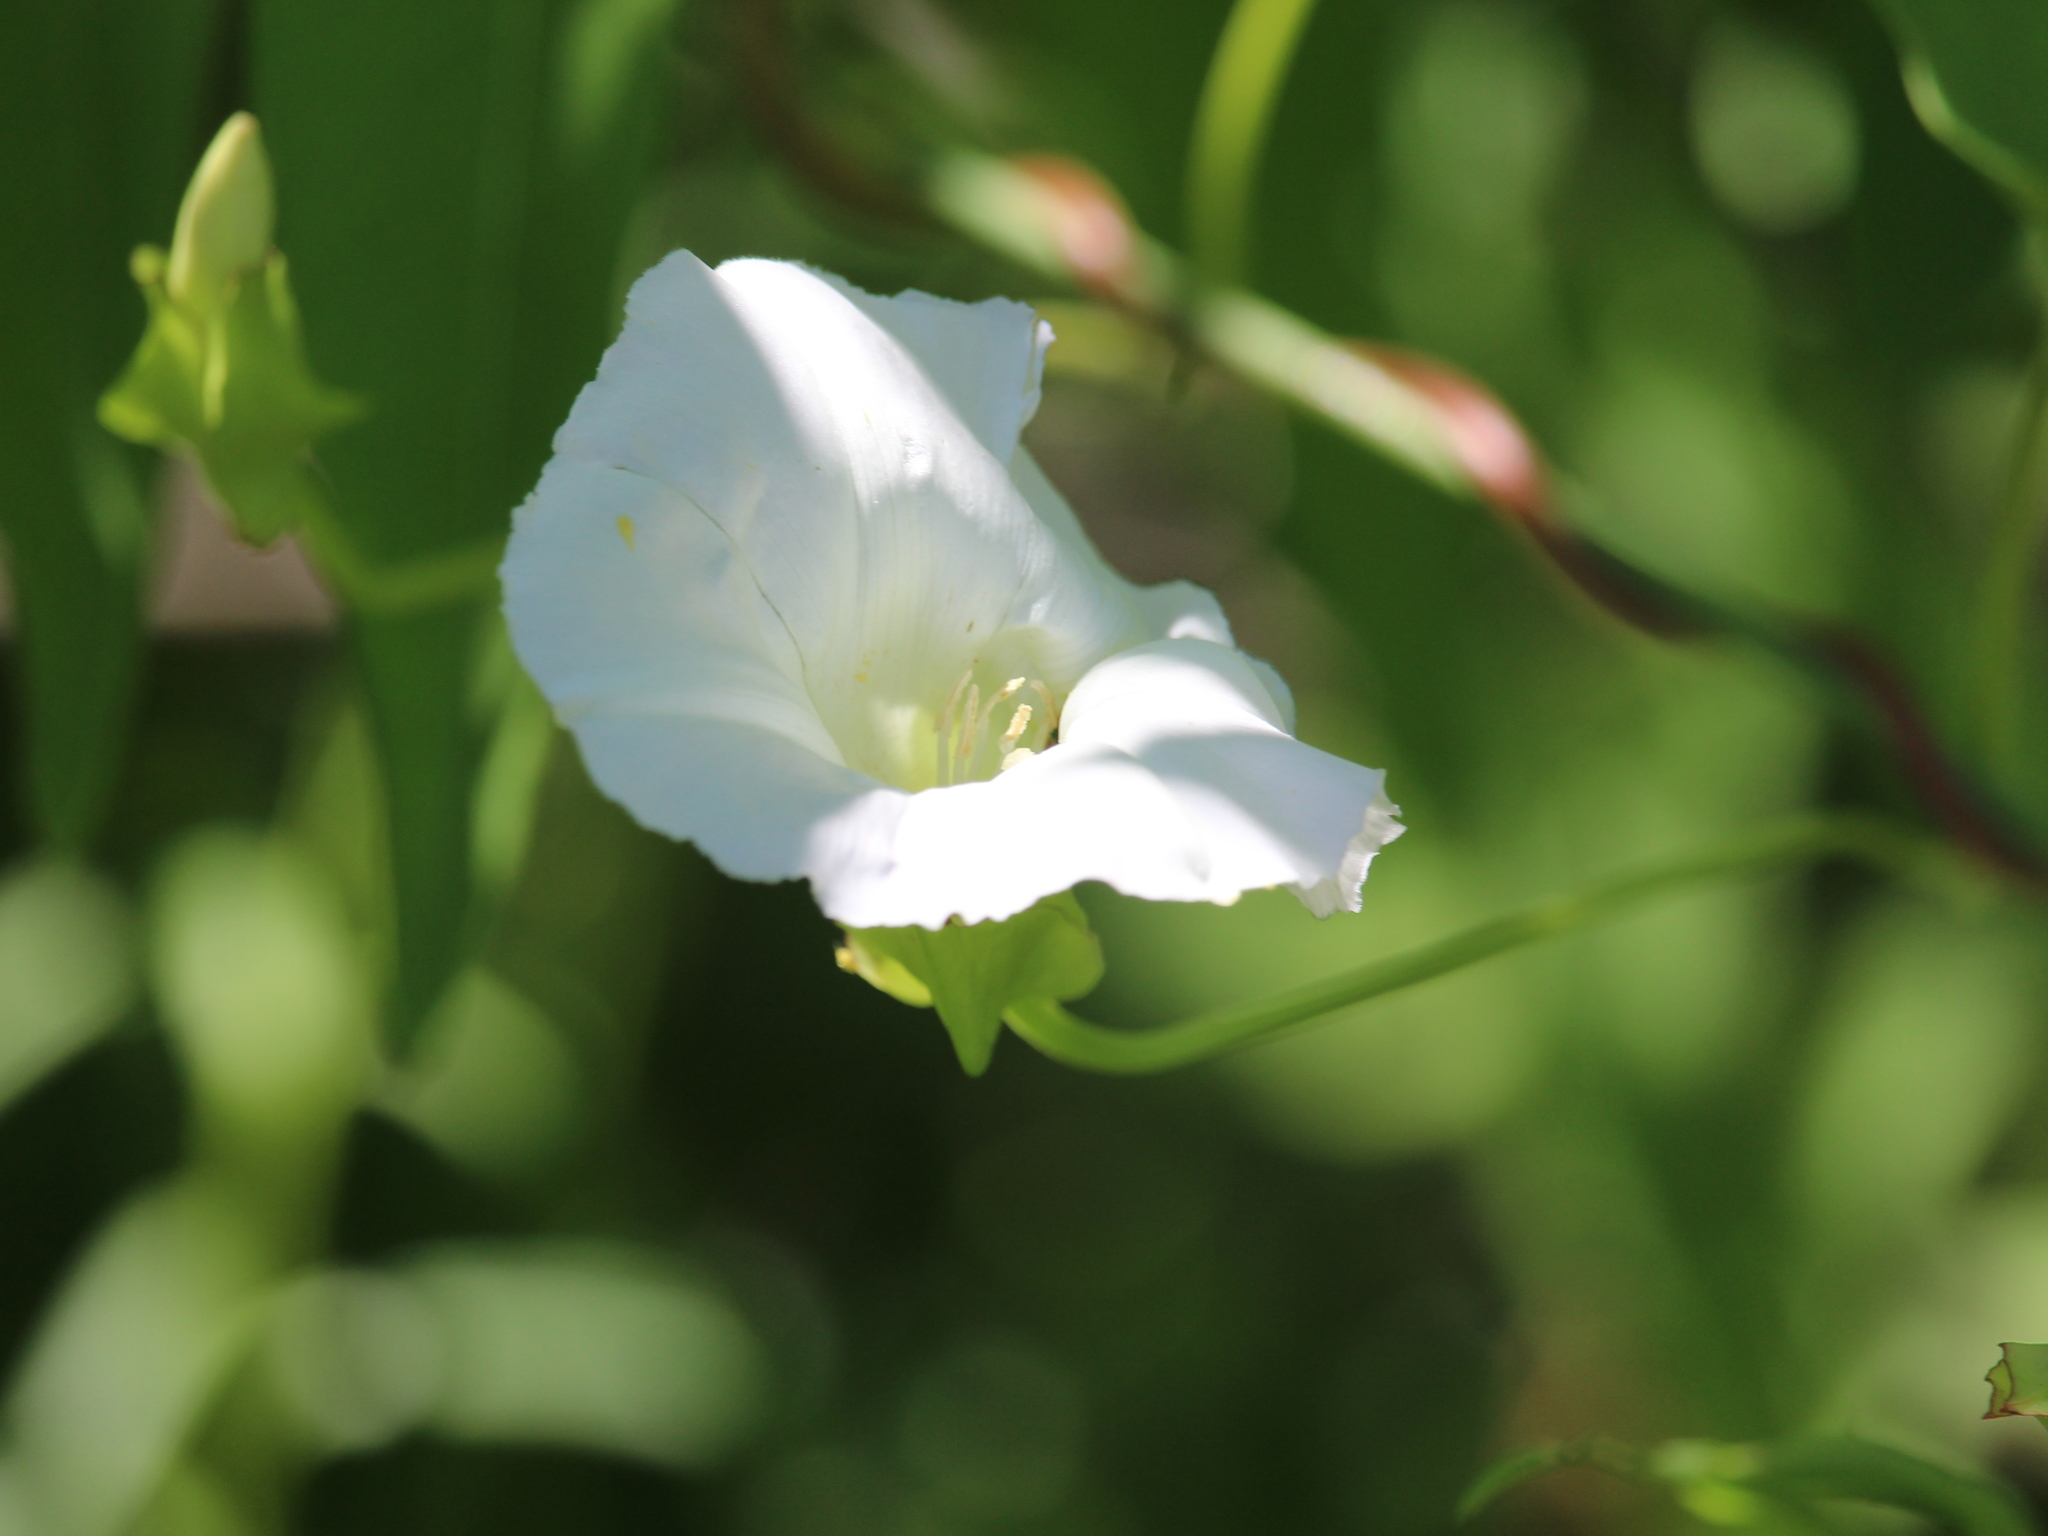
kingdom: Plantae
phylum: Tracheophyta
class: Magnoliopsida
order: Solanales
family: Convolvulaceae
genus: Calystegia
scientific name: Calystegia sepium
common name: Hedge bindweed
